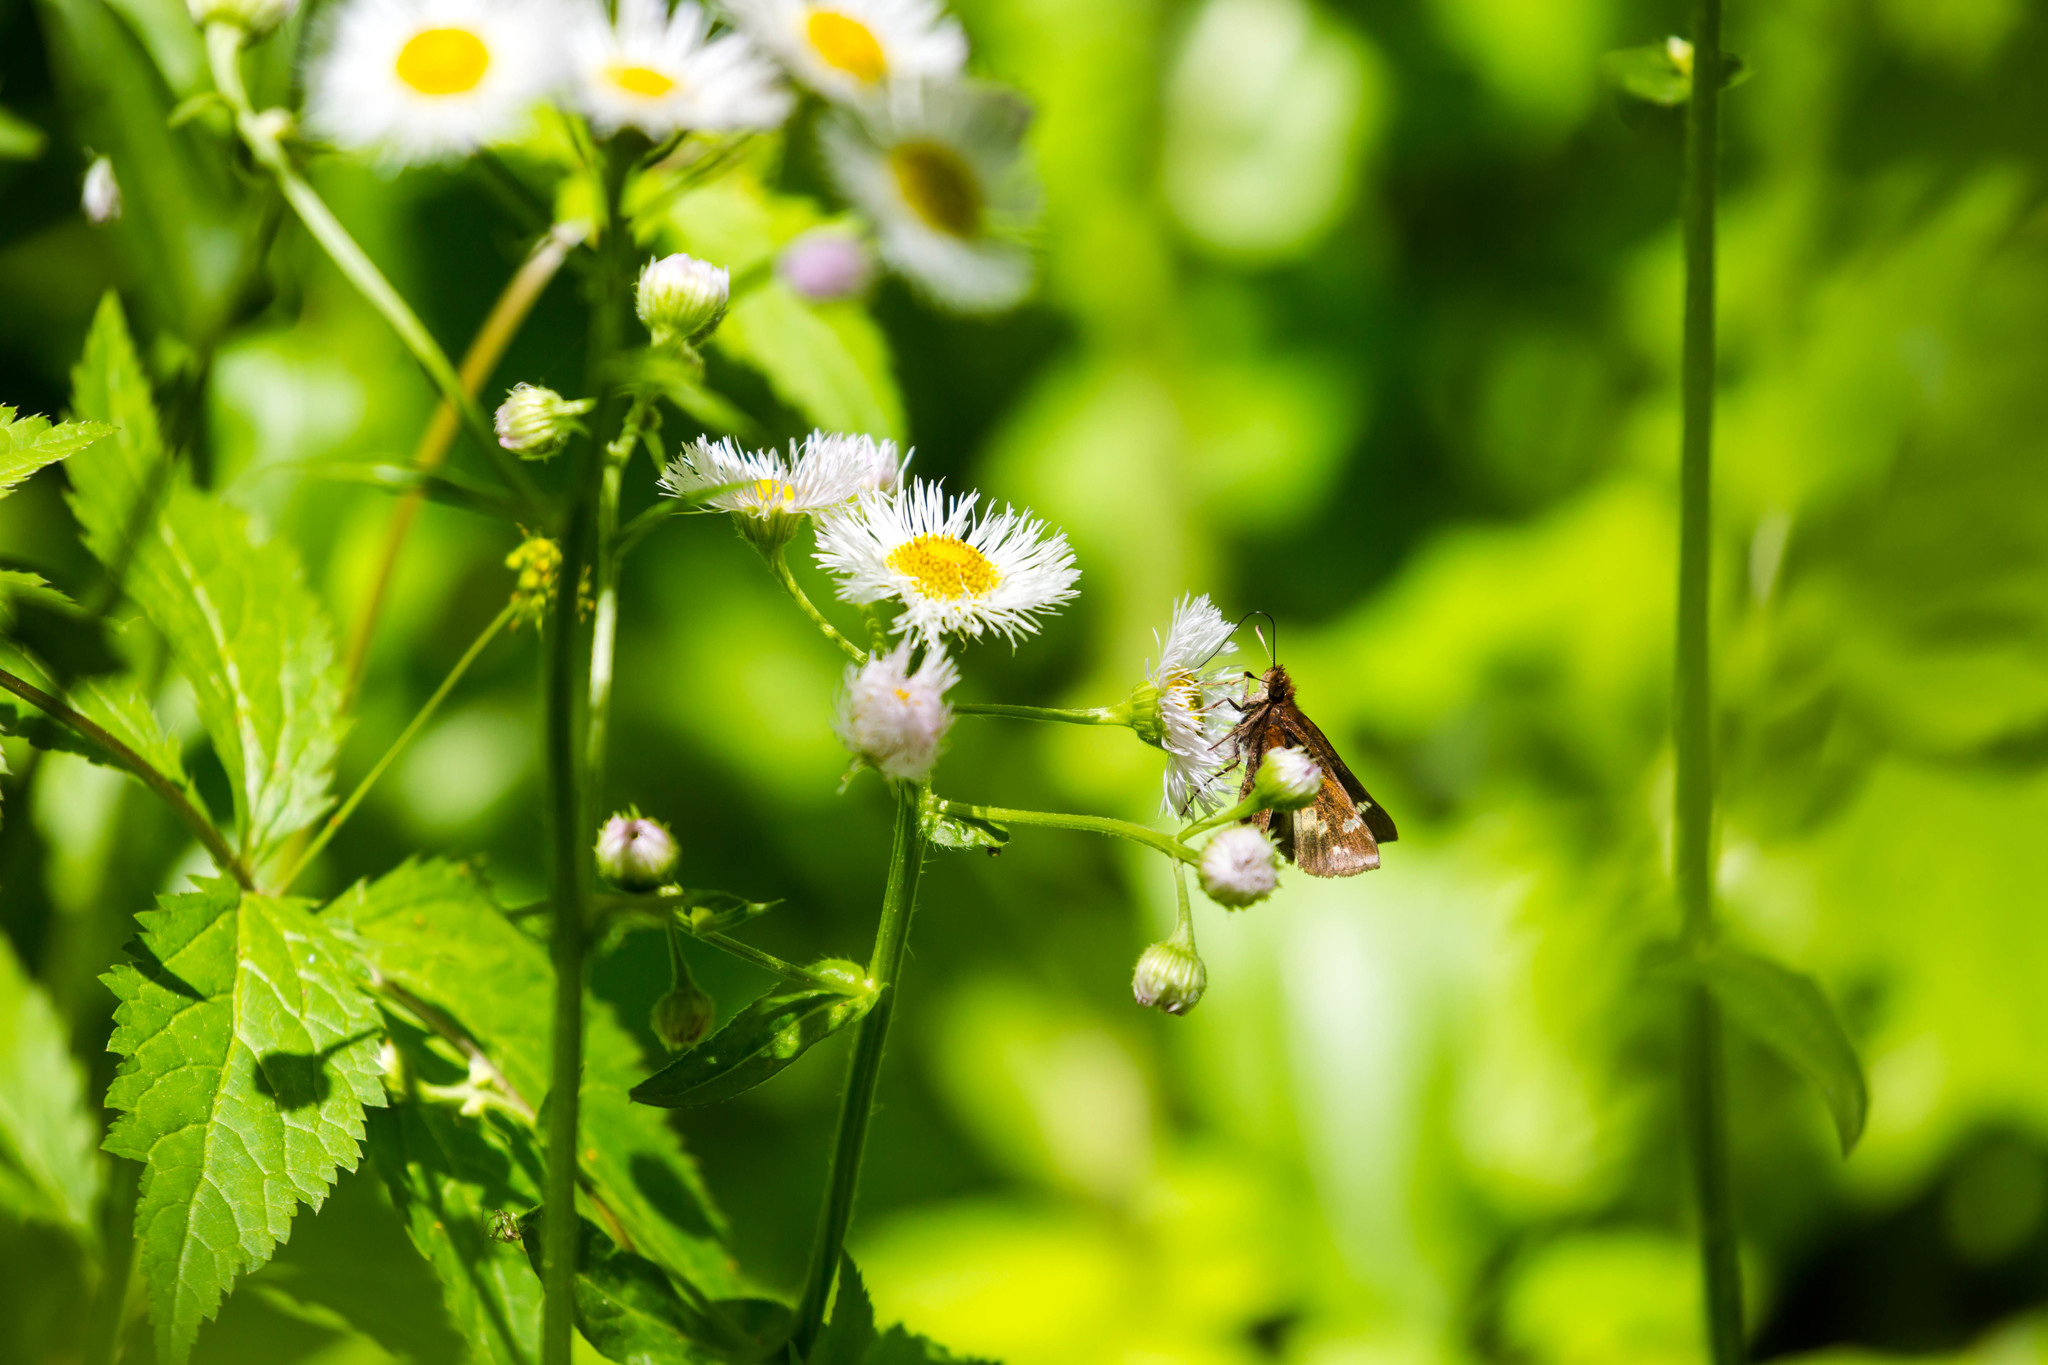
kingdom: Animalia
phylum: Arthropoda
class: Insecta
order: Lepidoptera
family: Hesperiidae
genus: Lon
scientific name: Lon zabulon
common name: Zabulon skipper
